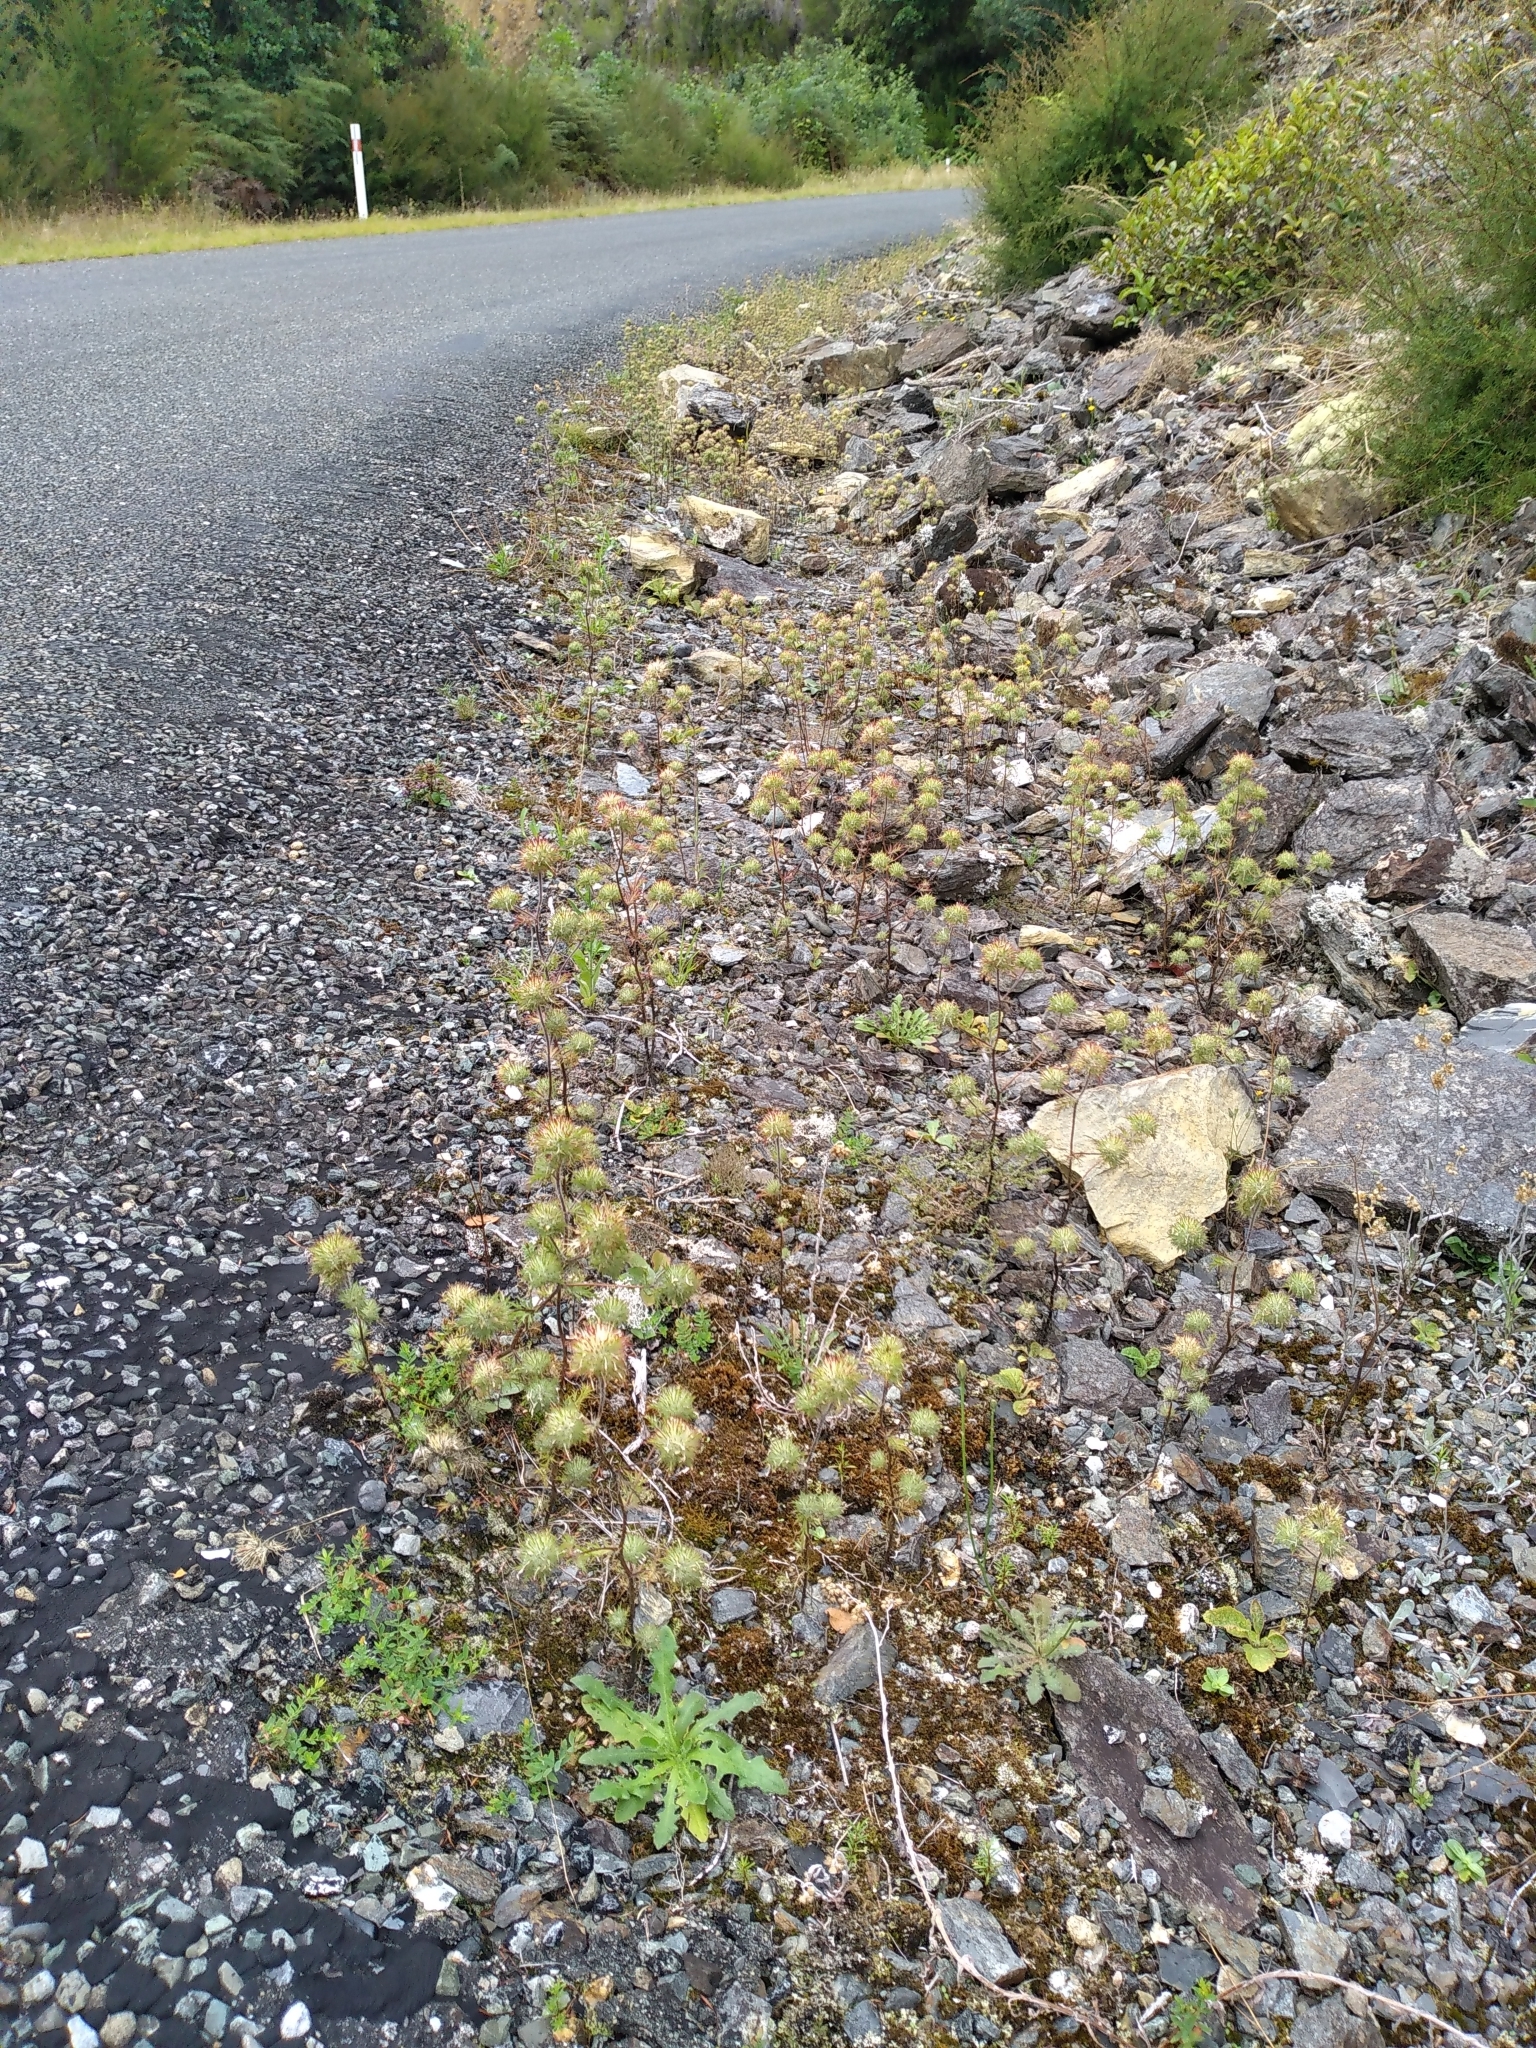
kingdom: Plantae
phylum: Tracheophyta
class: Magnoliopsida
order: Ericales
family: Polemoniaceae
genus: Navarretia
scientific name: Navarretia squarrosa
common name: Skunkweed
